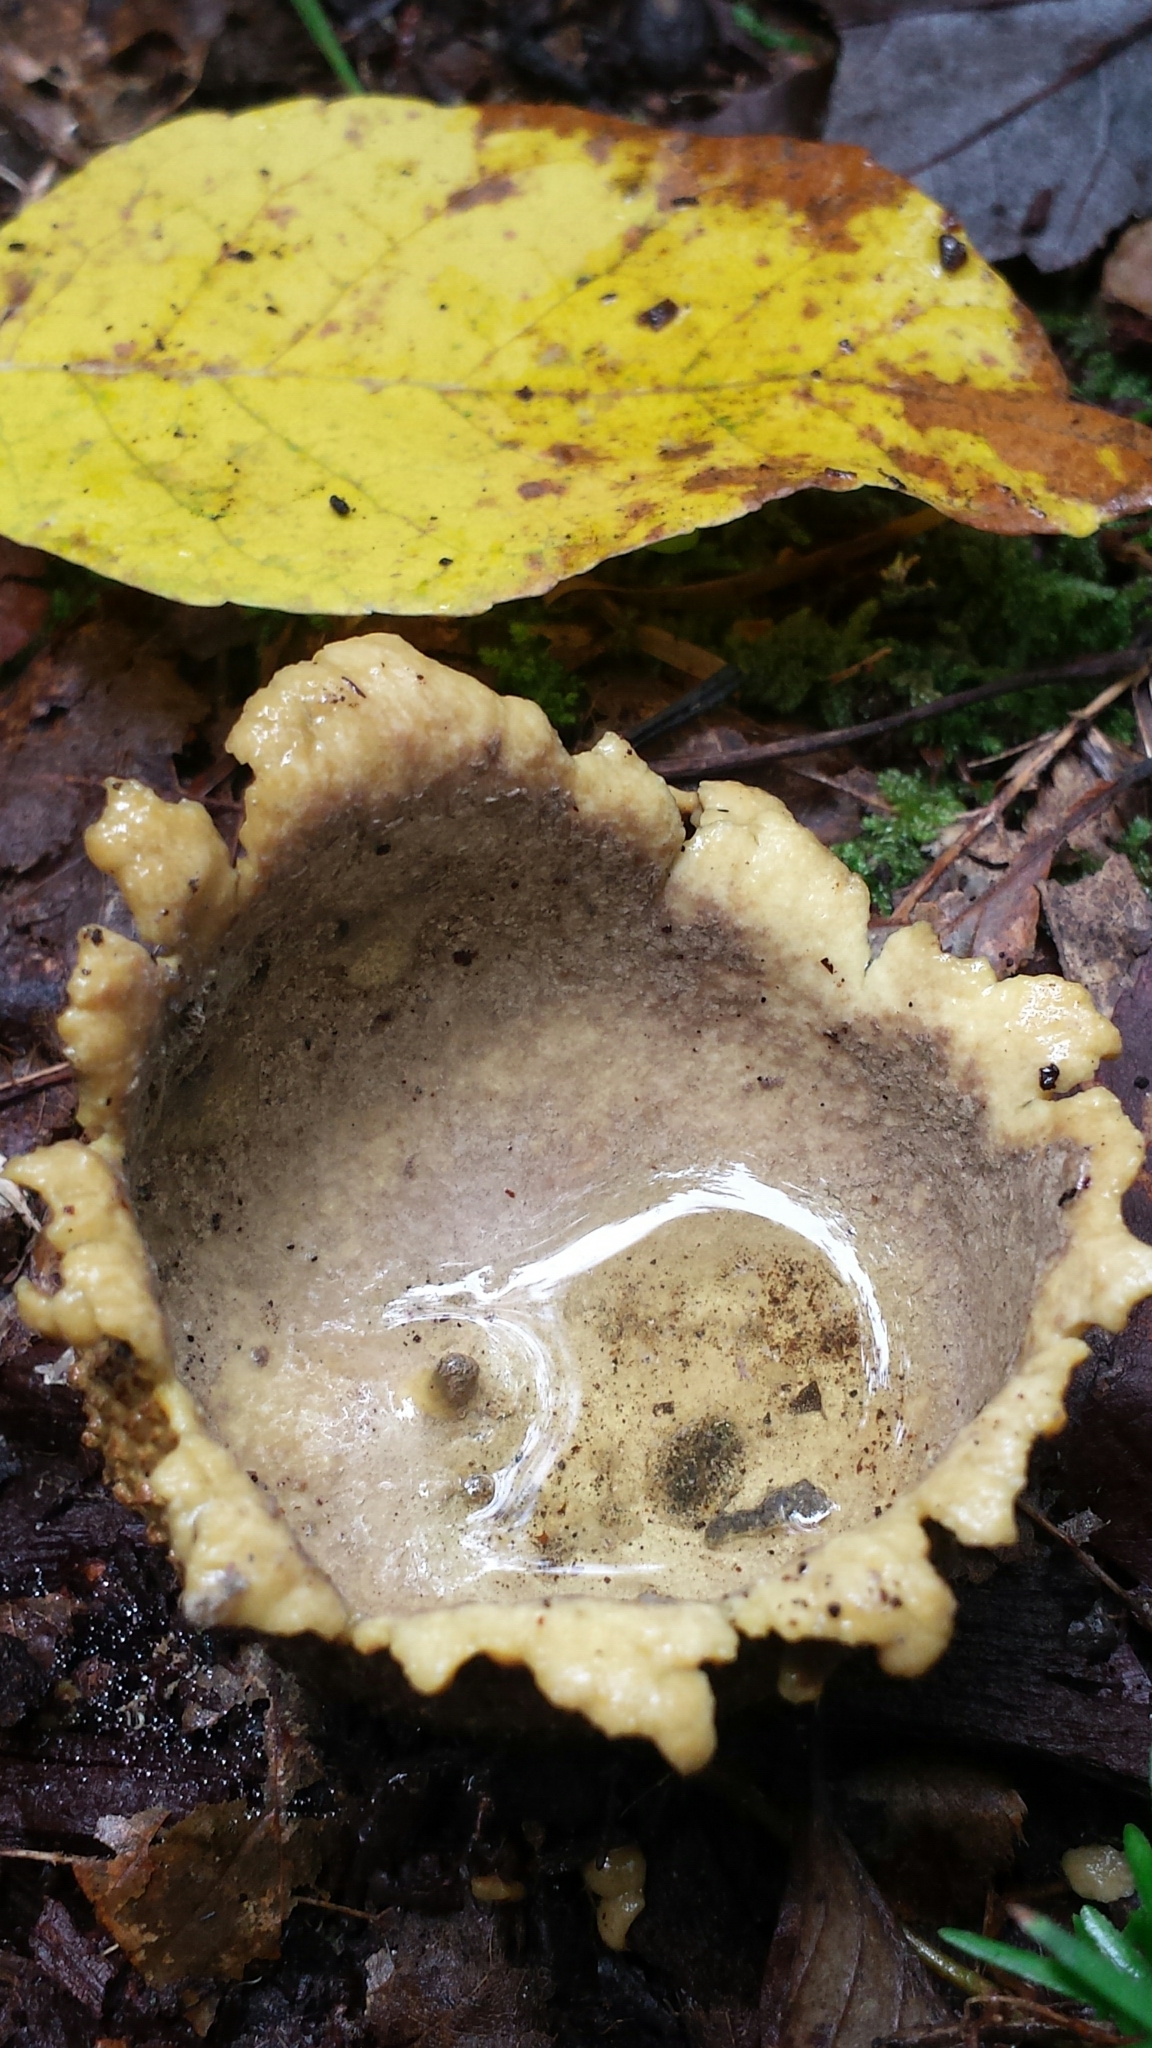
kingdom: Fungi
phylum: Basidiomycota
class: Agaricomycetes
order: Boletales
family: Sclerodermataceae
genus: Scleroderma
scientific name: Scleroderma citrinum
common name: Common earthball
